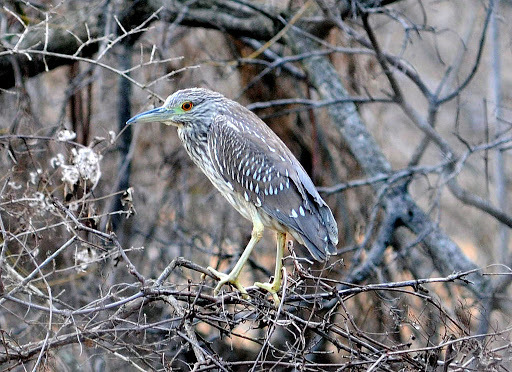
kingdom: Animalia
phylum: Chordata
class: Aves
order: Pelecaniformes
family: Ardeidae
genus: Nycticorax
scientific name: Nycticorax nycticorax
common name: Black-crowned night heron
